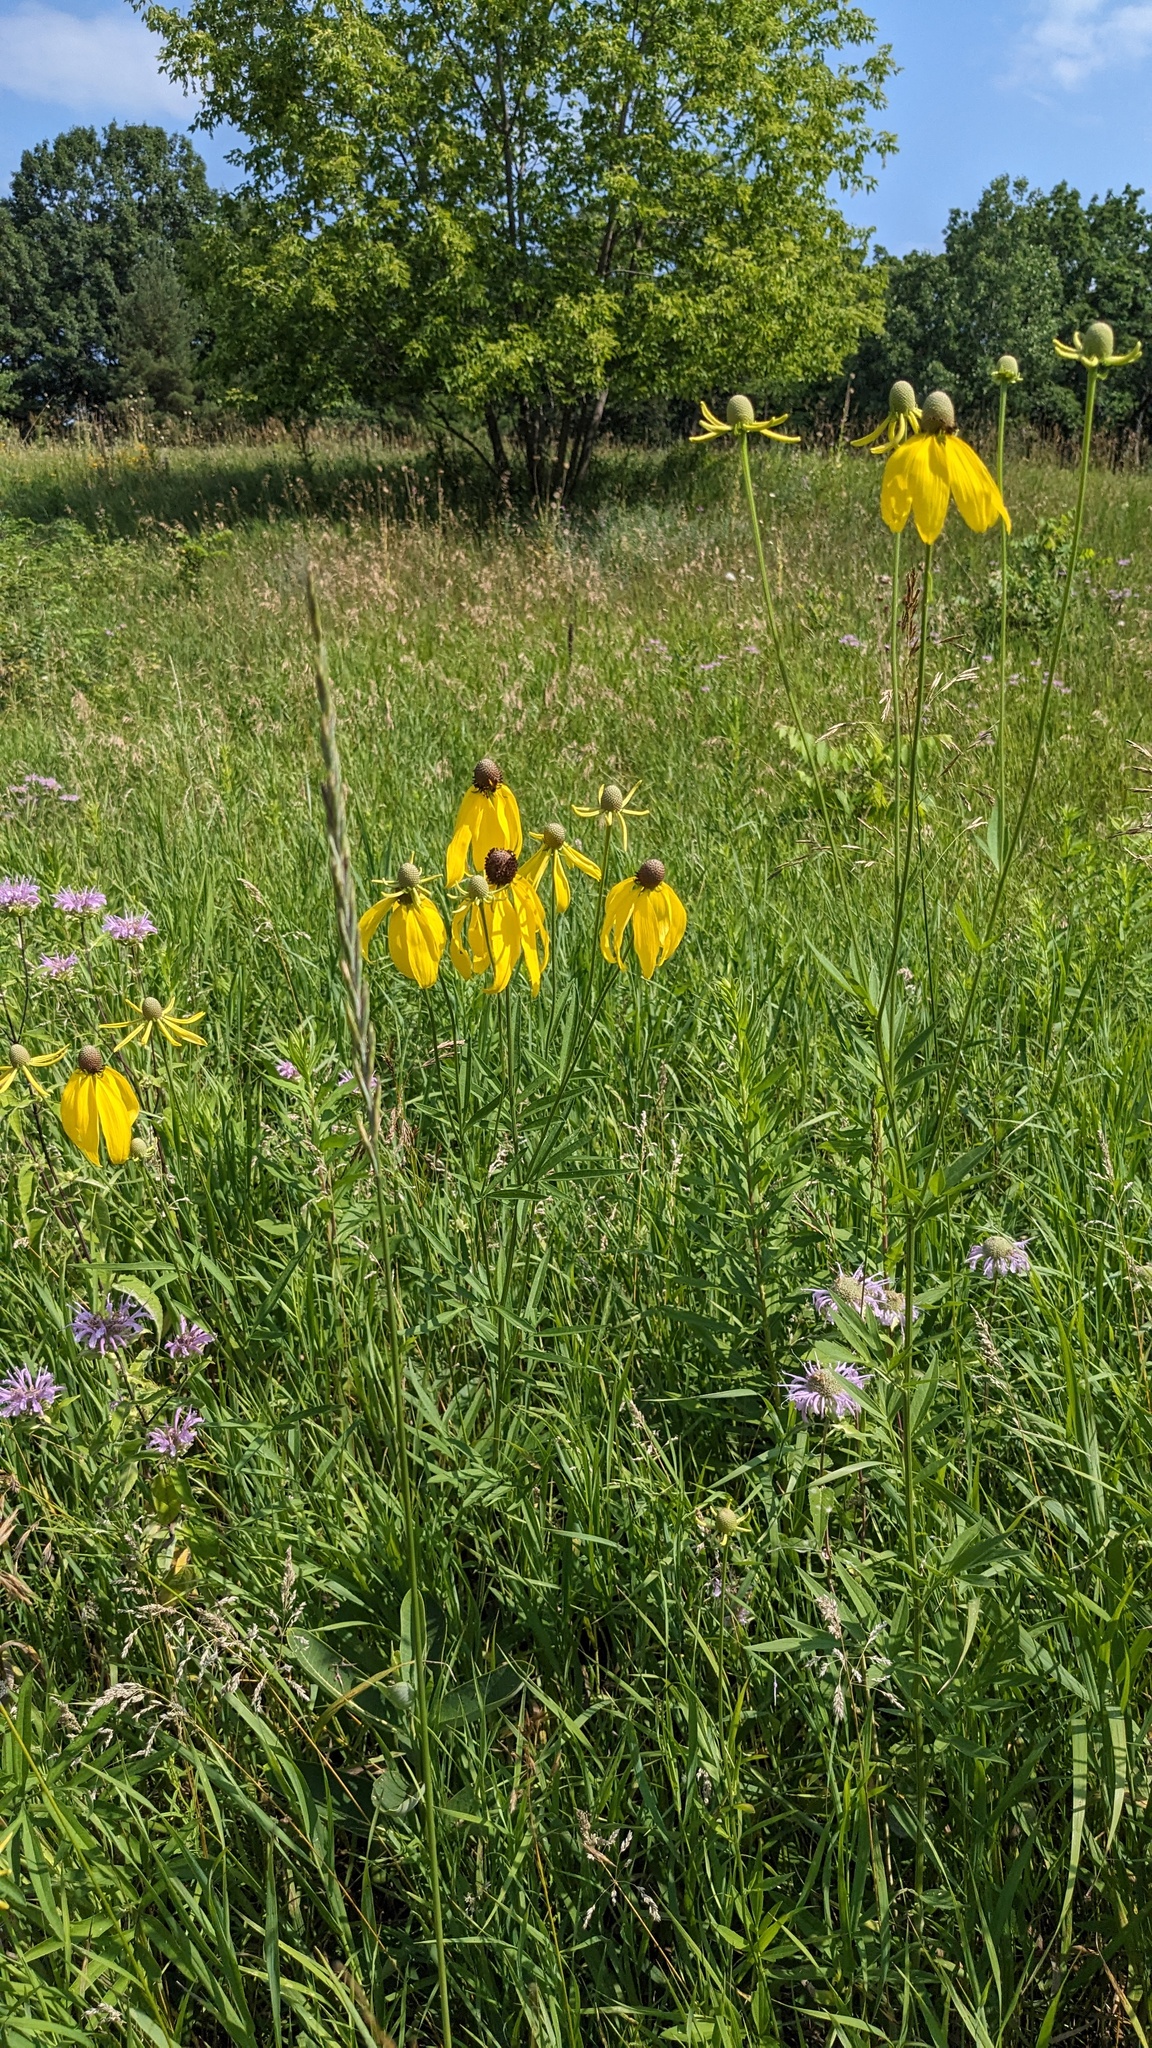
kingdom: Plantae
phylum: Tracheophyta
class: Magnoliopsida
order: Asterales
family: Asteraceae
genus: Ratibida
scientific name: Ratibida pinnata
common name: Drooping prairie-coneflower
